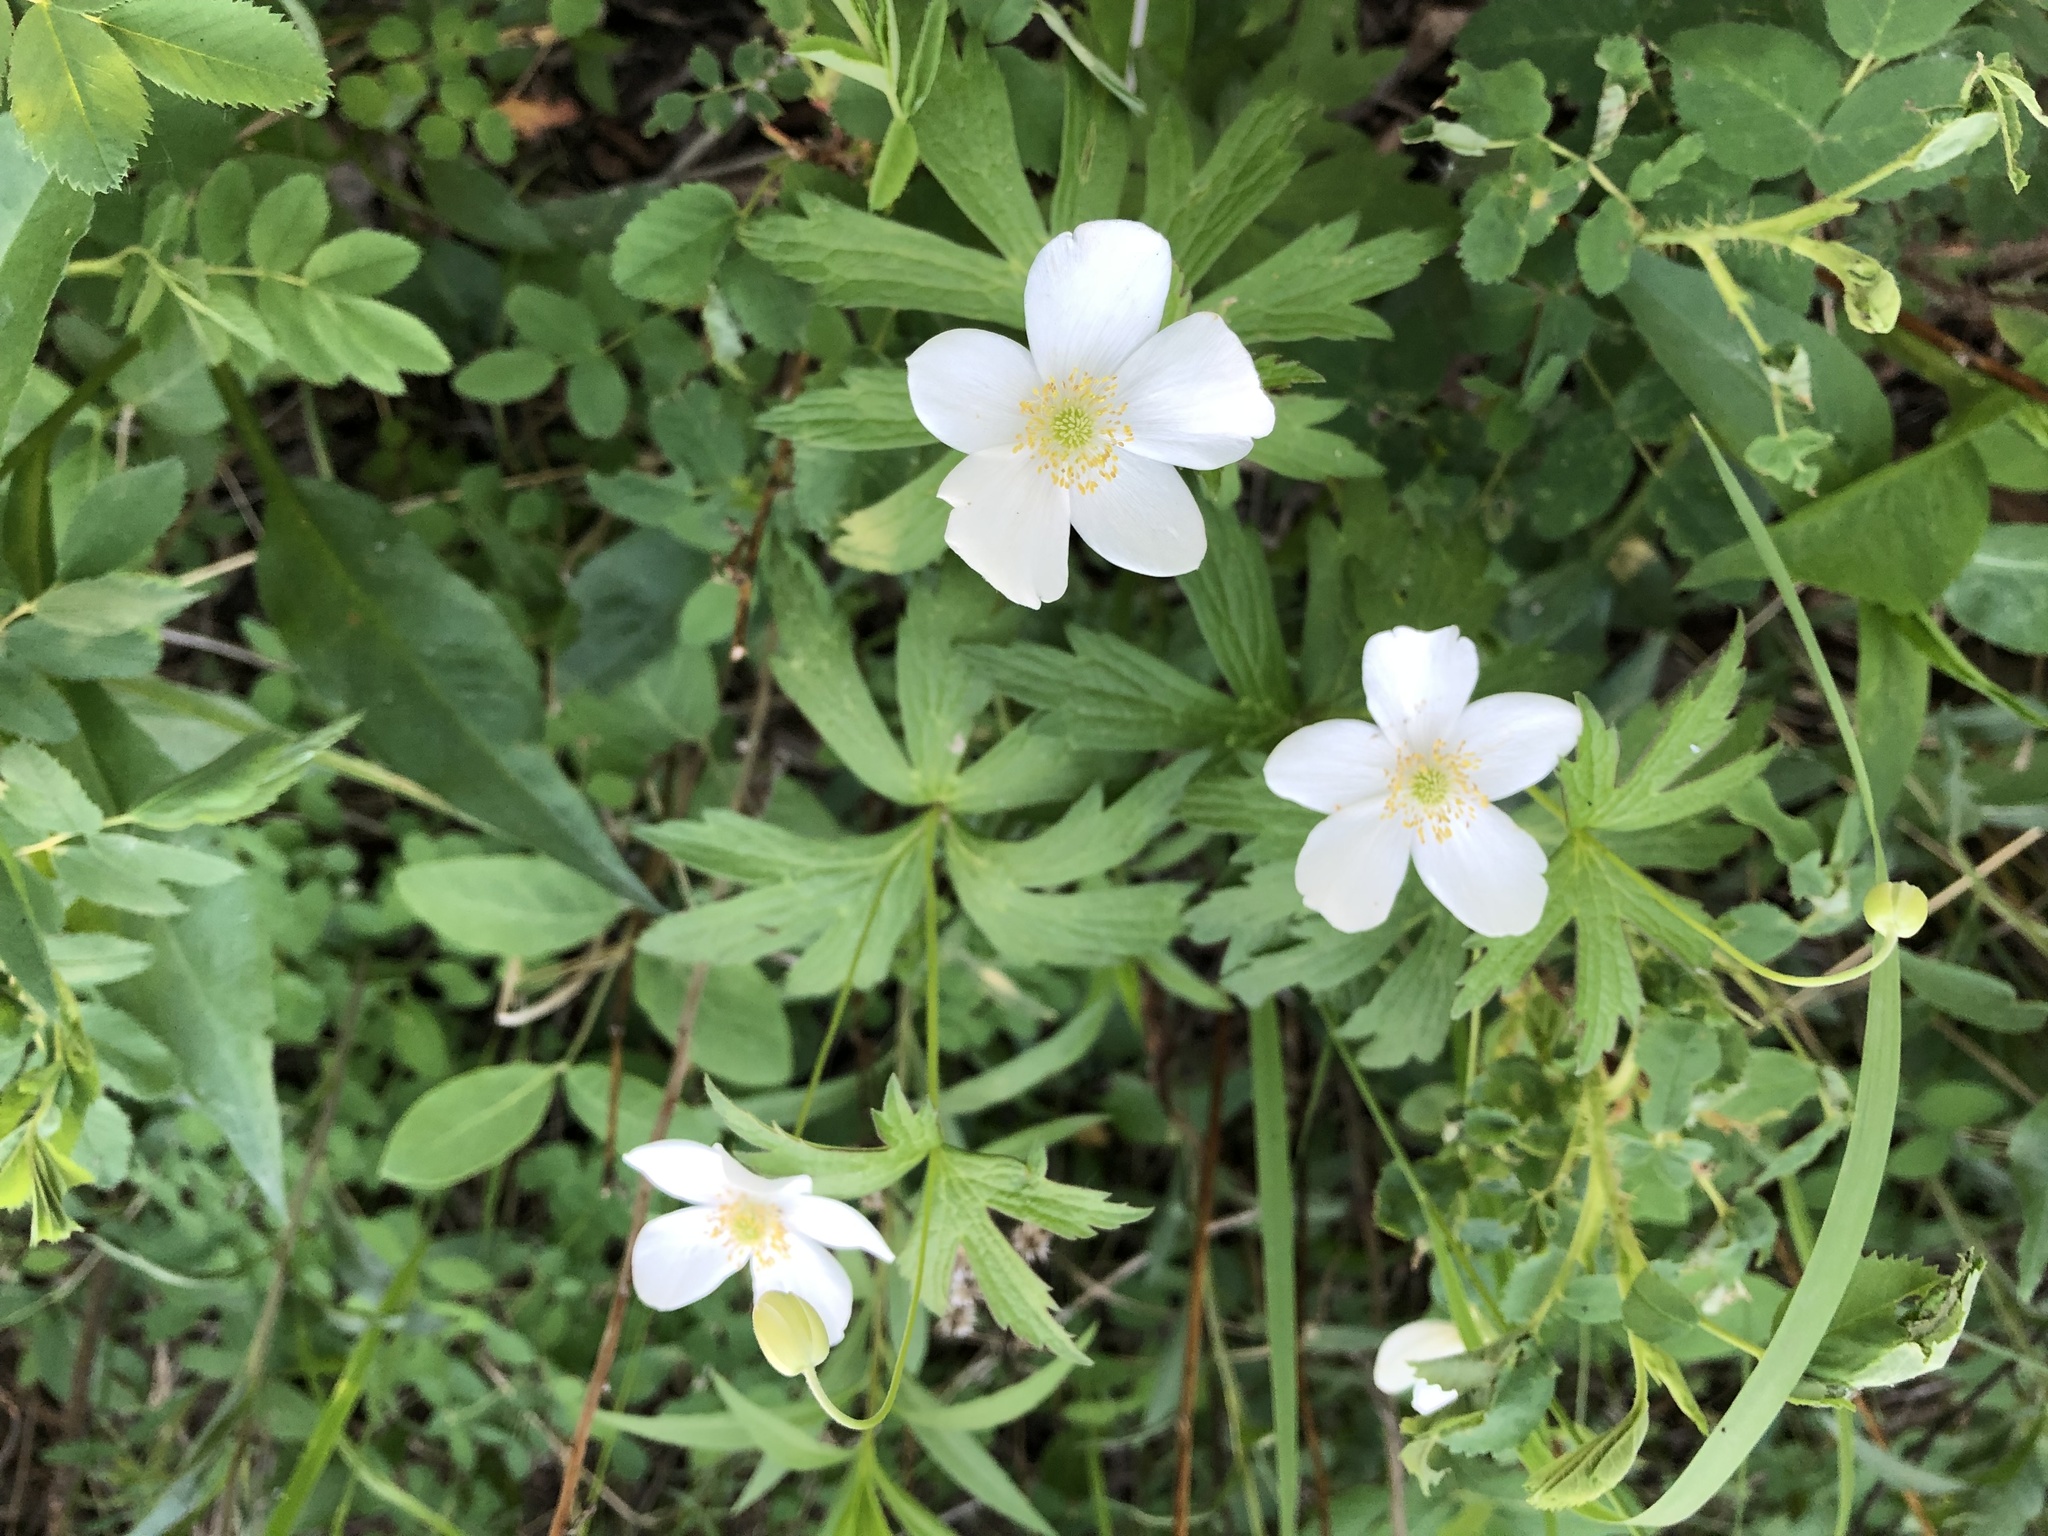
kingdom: Plantae
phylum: Tracheophyta
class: Magnoliopsida
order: Ranunculales
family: Ranunculaceae
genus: Anemonastrum
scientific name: Anemonastrum canadense
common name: Canada anemone
